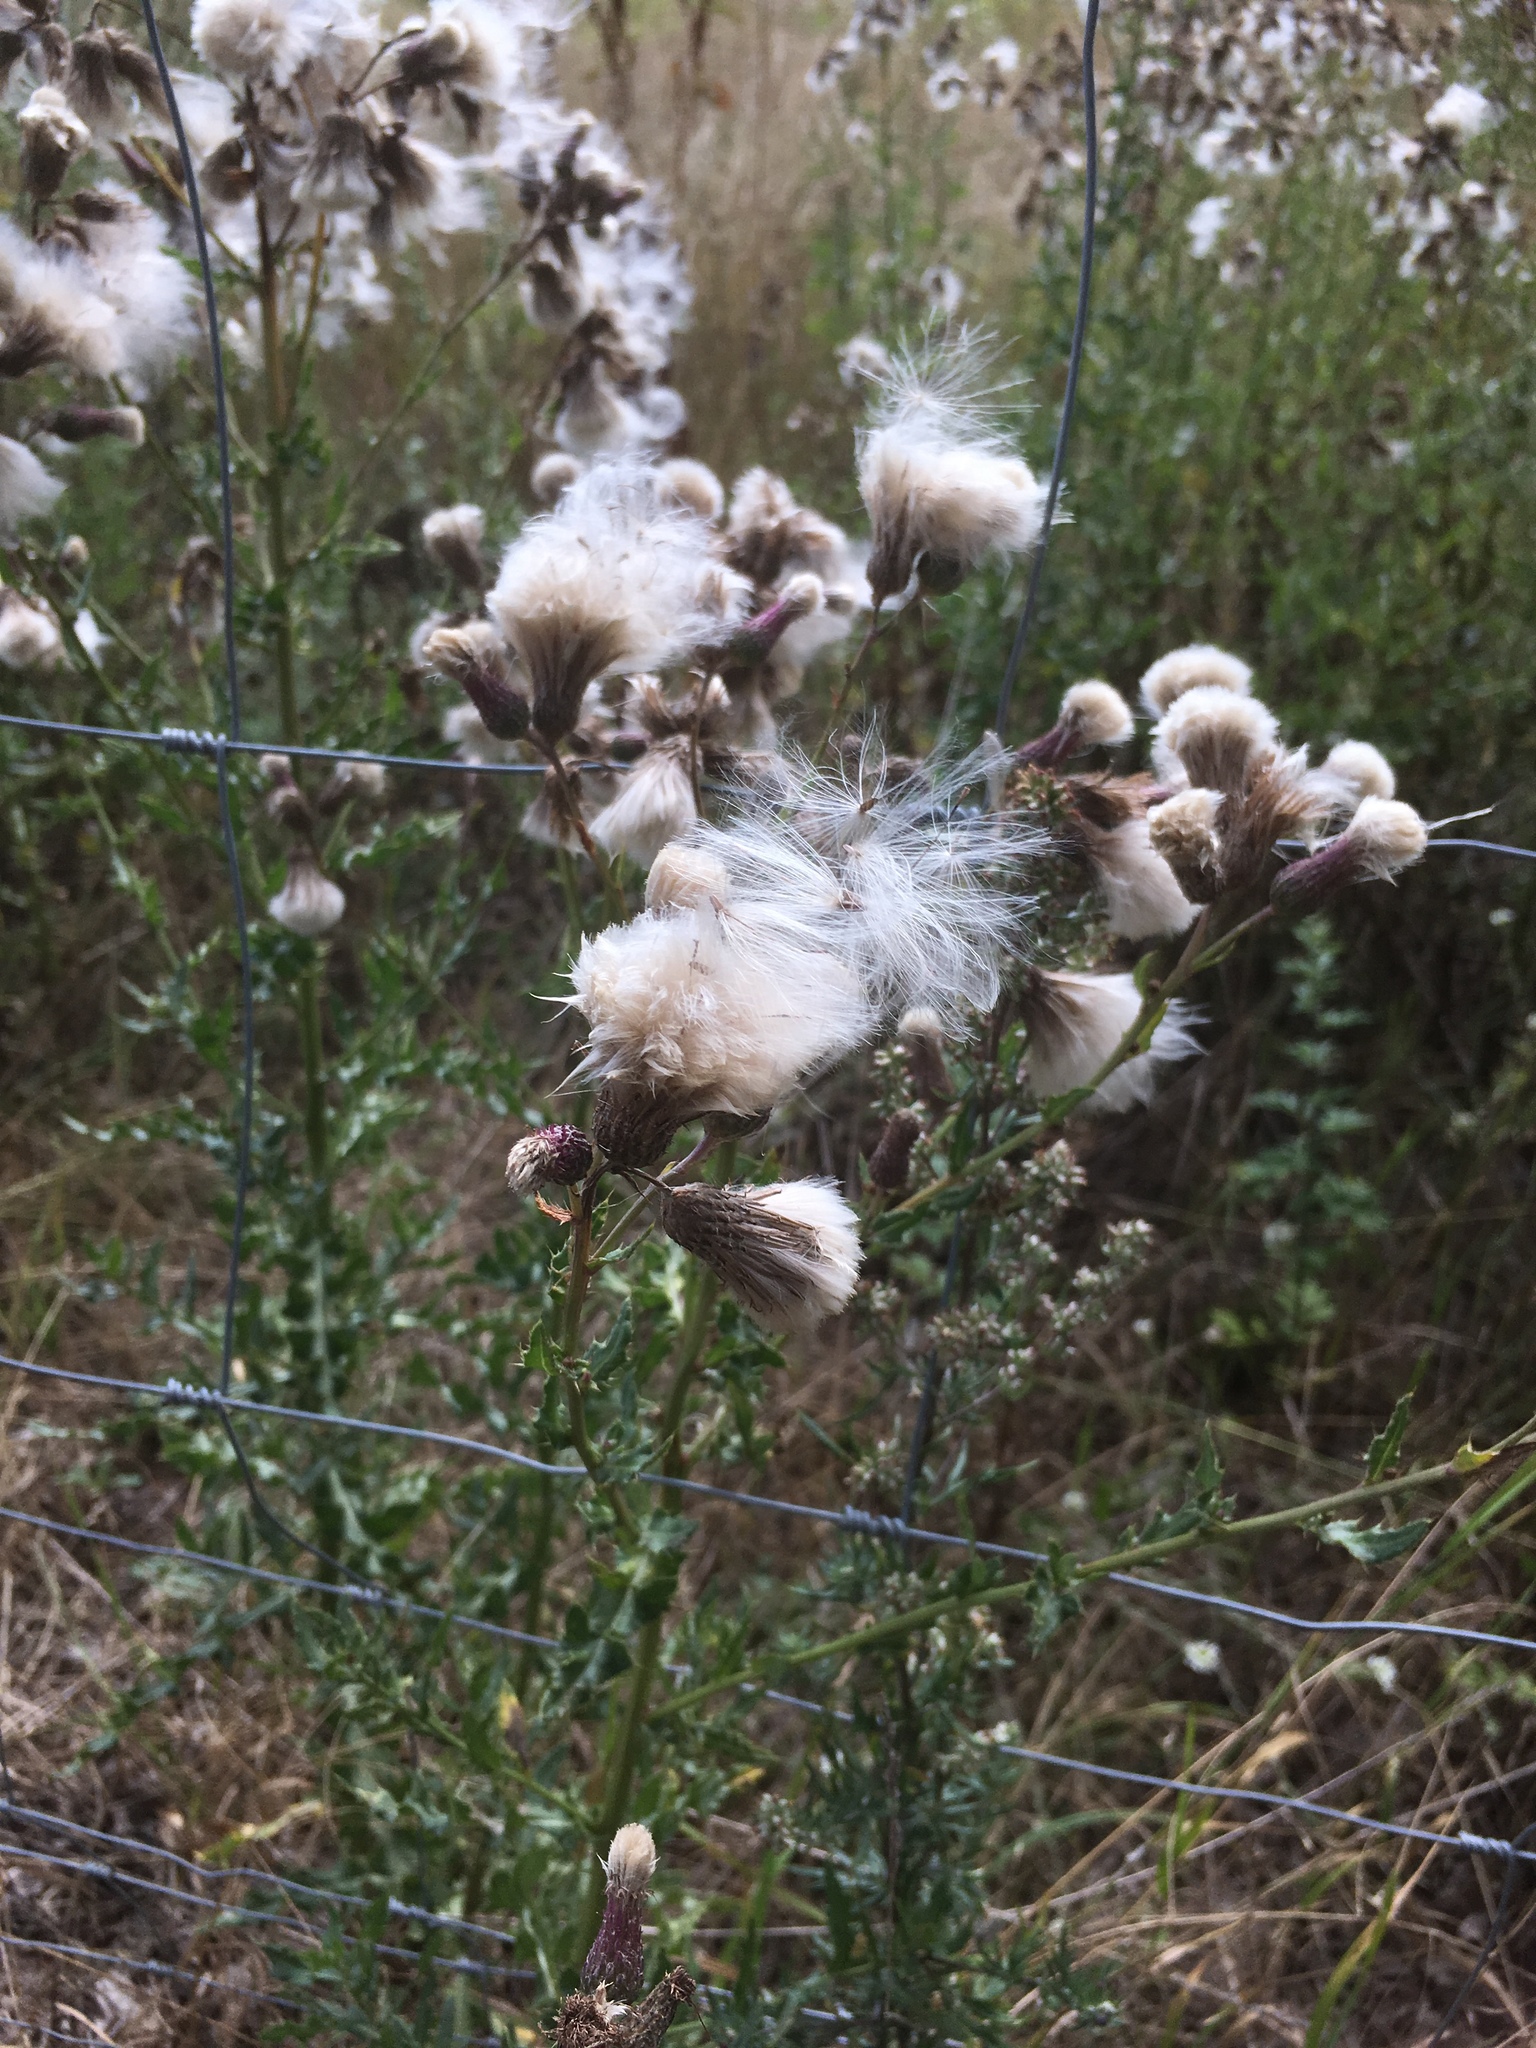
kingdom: Plantae
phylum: Tracheophyta
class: Magnoliopsida
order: Asterales
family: Asteraceae
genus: Cirsium
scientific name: Cirsium arvense
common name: Creeping thistle
